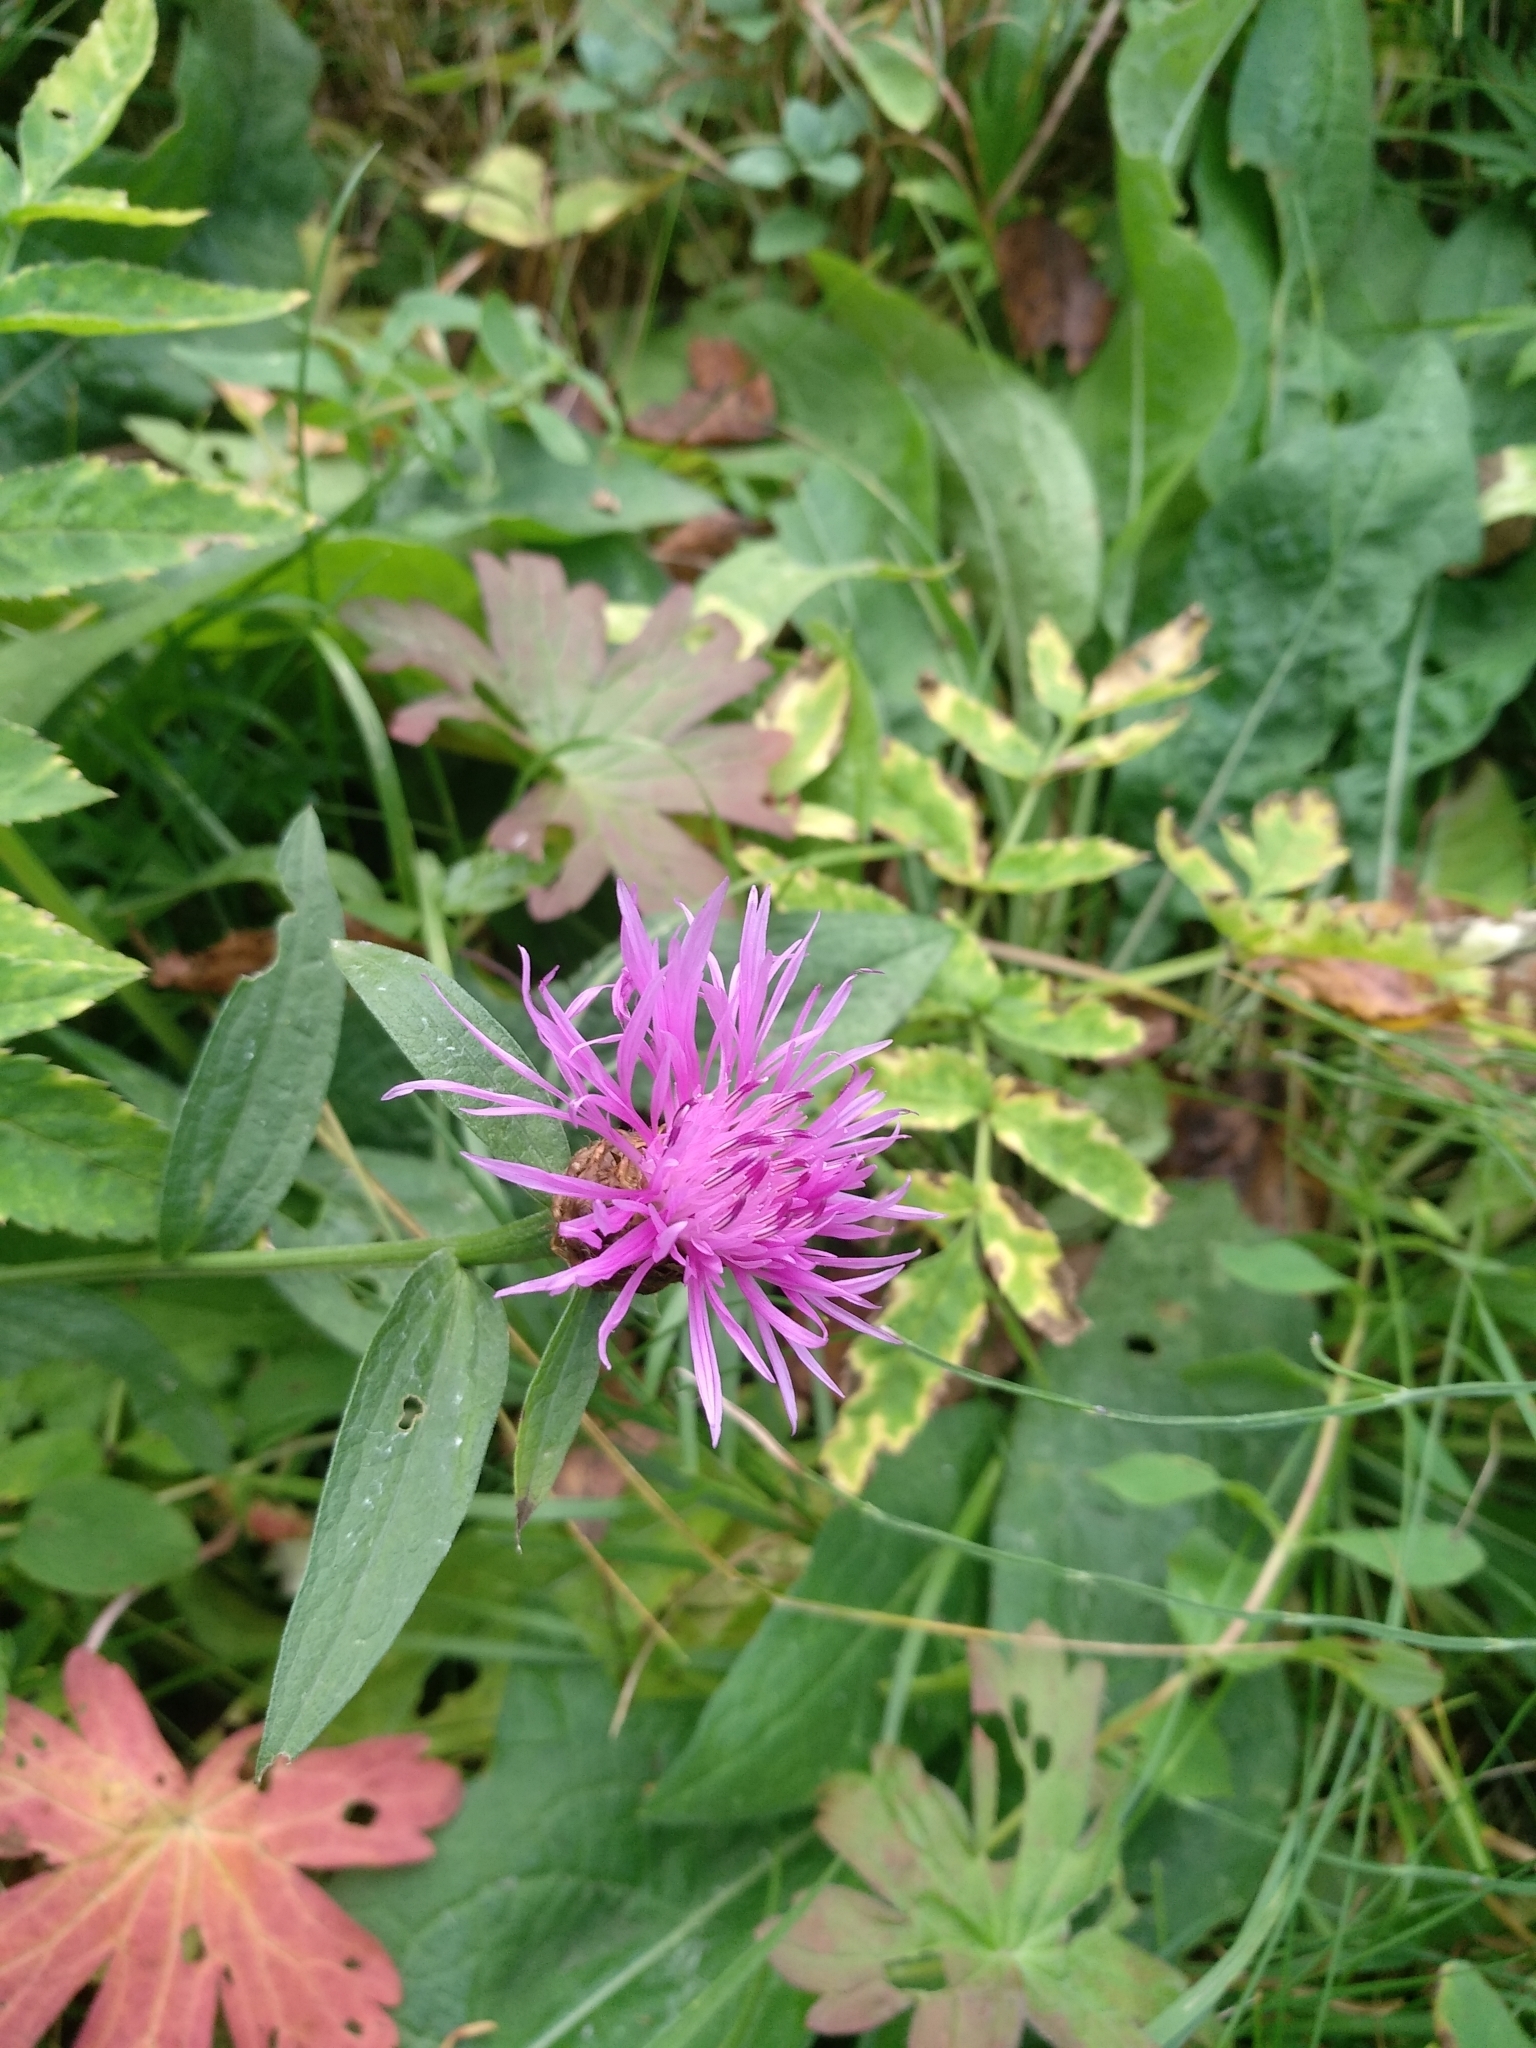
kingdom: Plantae
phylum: Tracheophyta
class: Magnoliopsida
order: Asterales
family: Asteraceae
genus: Centaurea
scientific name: Centaurea jacea
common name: Brown knapweed
